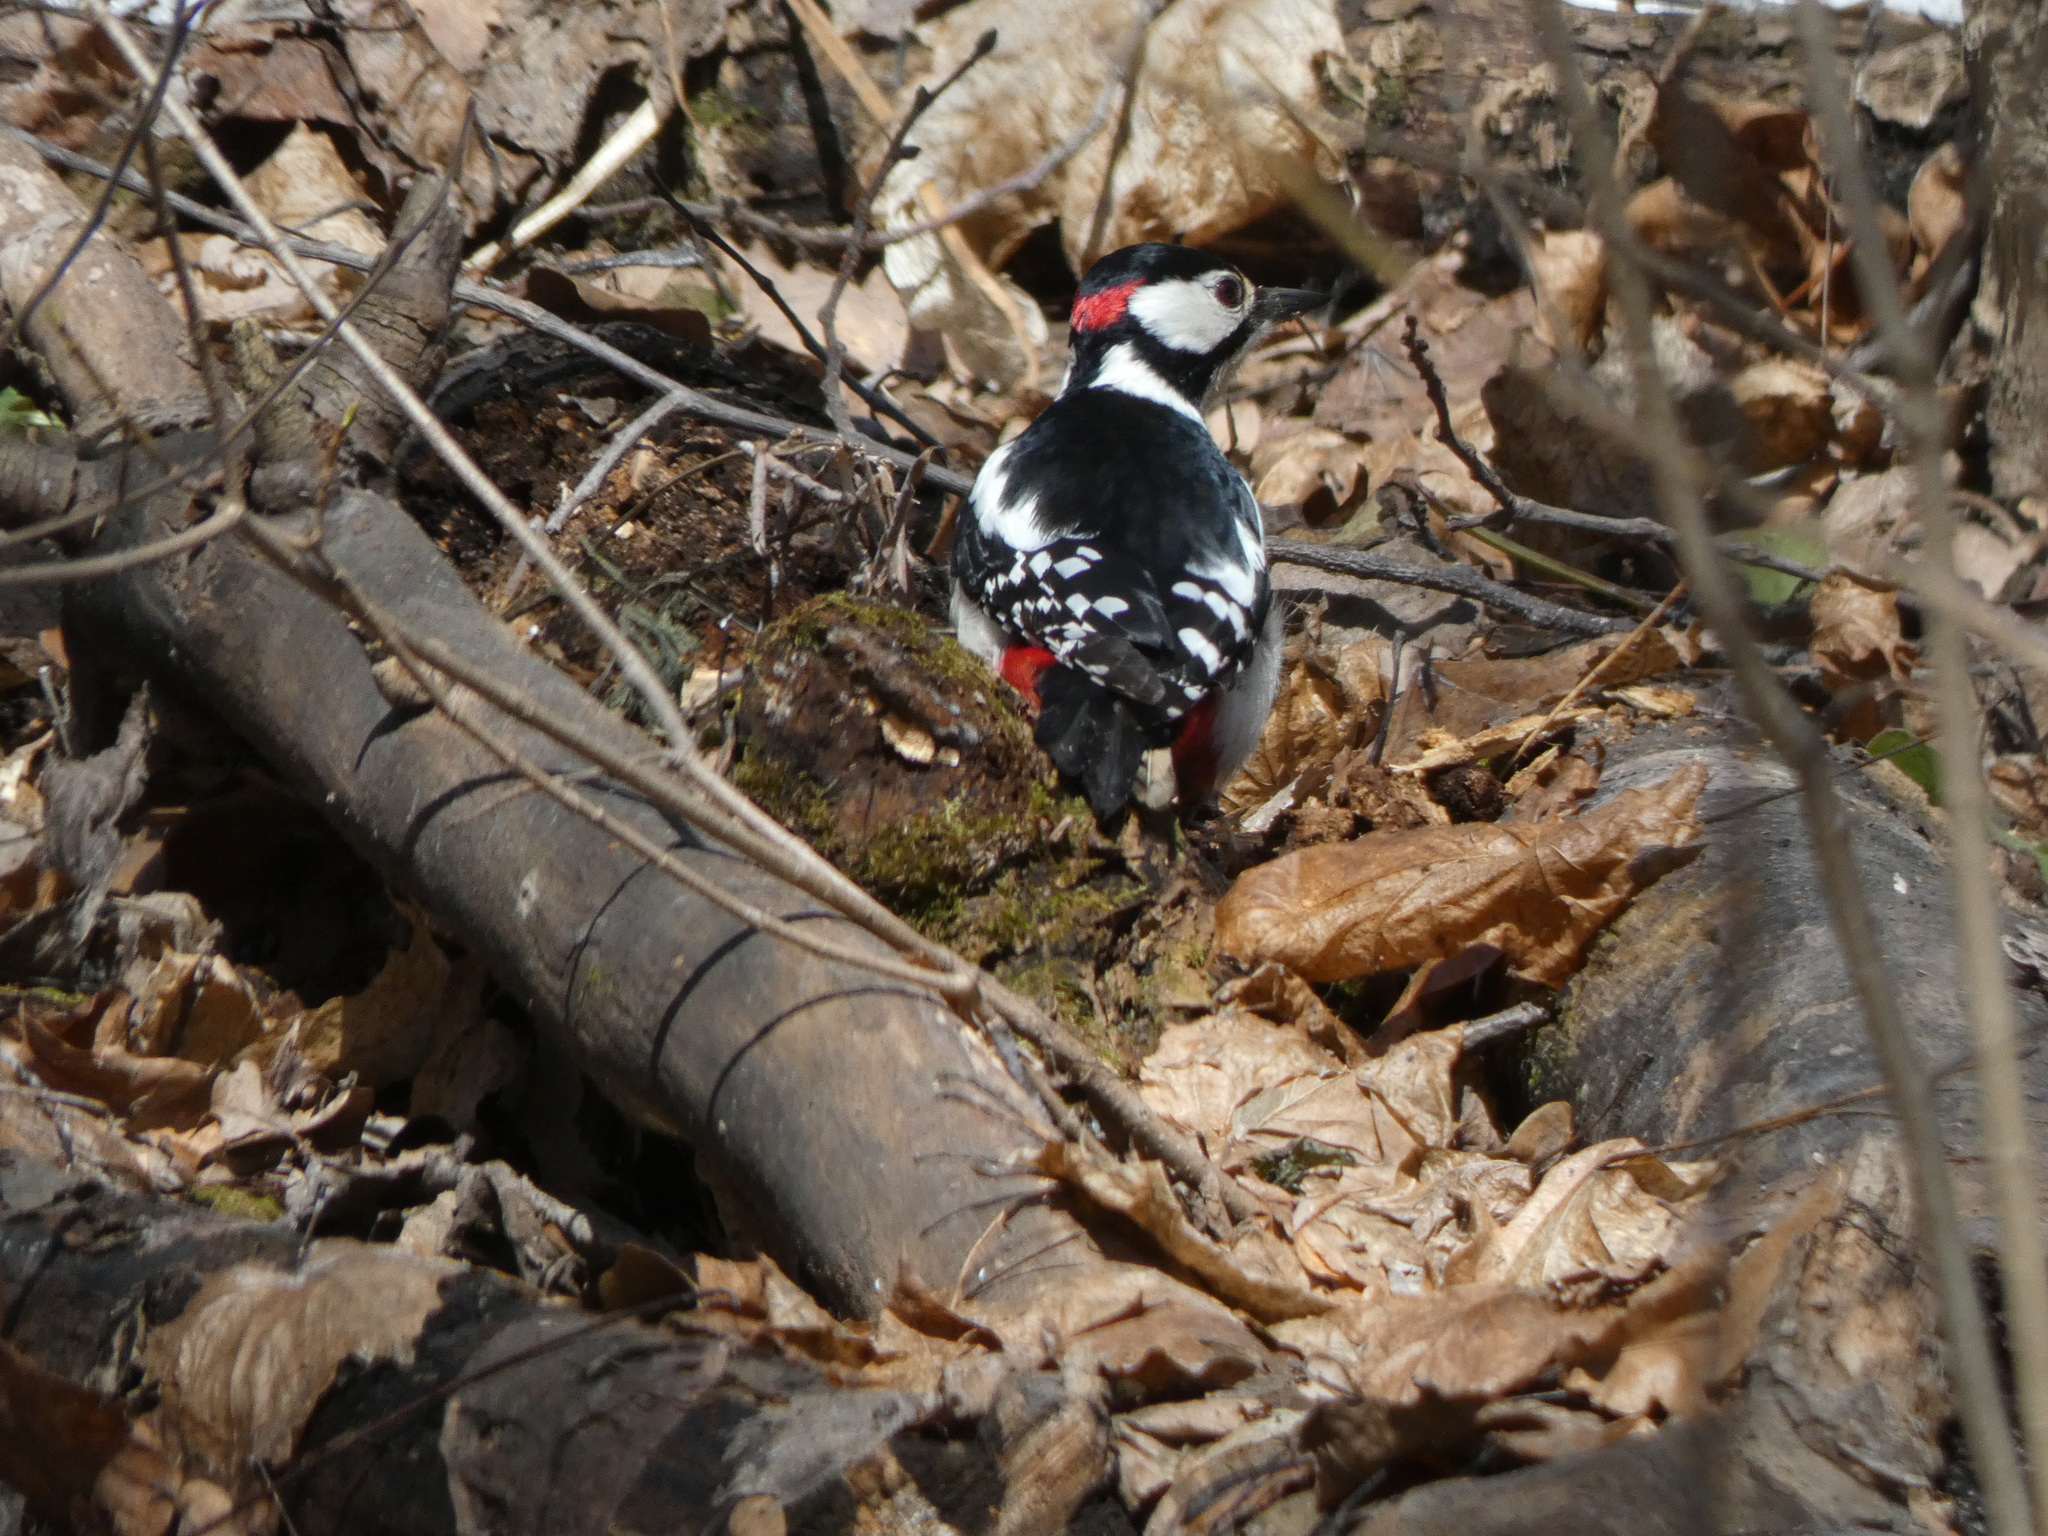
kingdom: Animalia
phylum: Chordata
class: Aves
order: Piciformes
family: Picidae
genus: Dendrocopos
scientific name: Dendrocopos major
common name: Great spotted woodpecker
